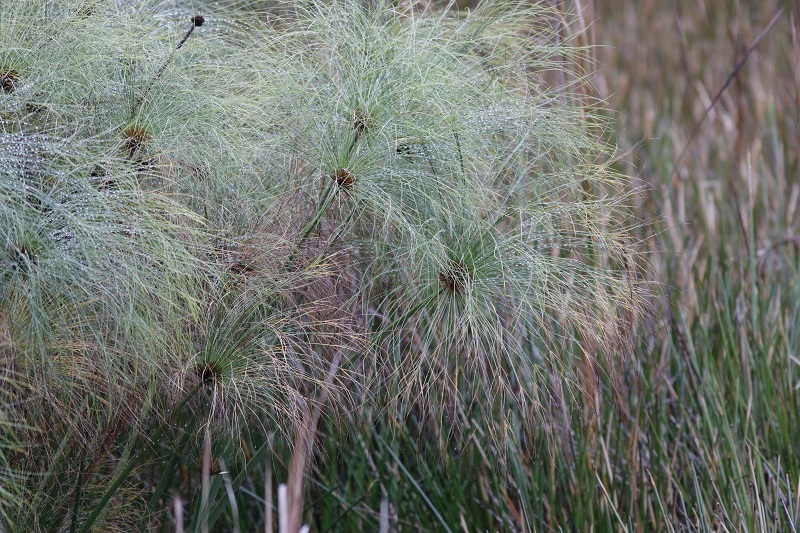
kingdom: Plantae
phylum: Tracheophyta
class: Liliopsida
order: Poales
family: Cyperaceae
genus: Cyperus
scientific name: Cyperus papyrus
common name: Papyrus
